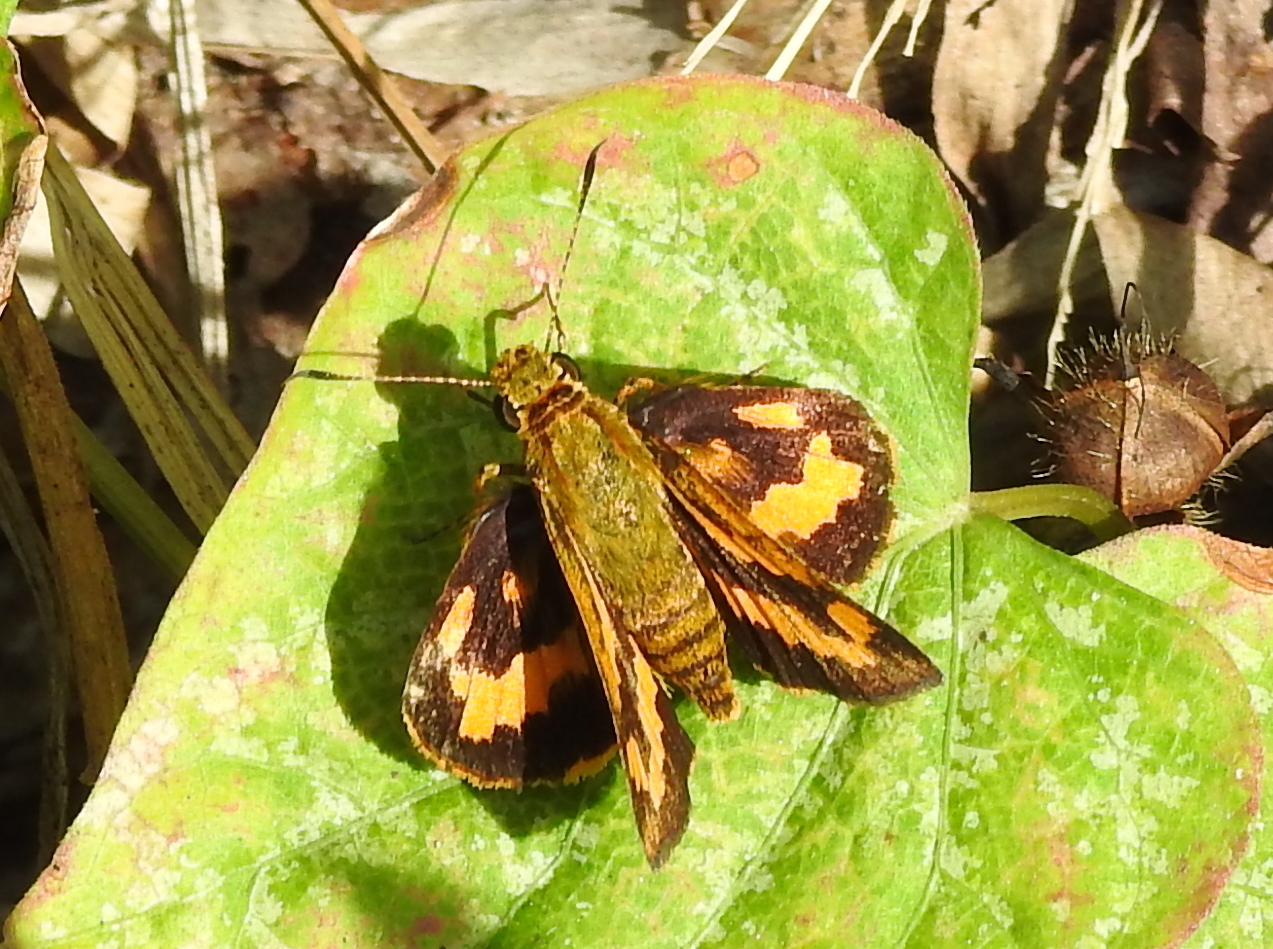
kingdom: Animalia
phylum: Arthropoda
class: Insecta
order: Lepidoptera
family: Hesperiidae
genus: Potanthus
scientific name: Potanthus confucius
